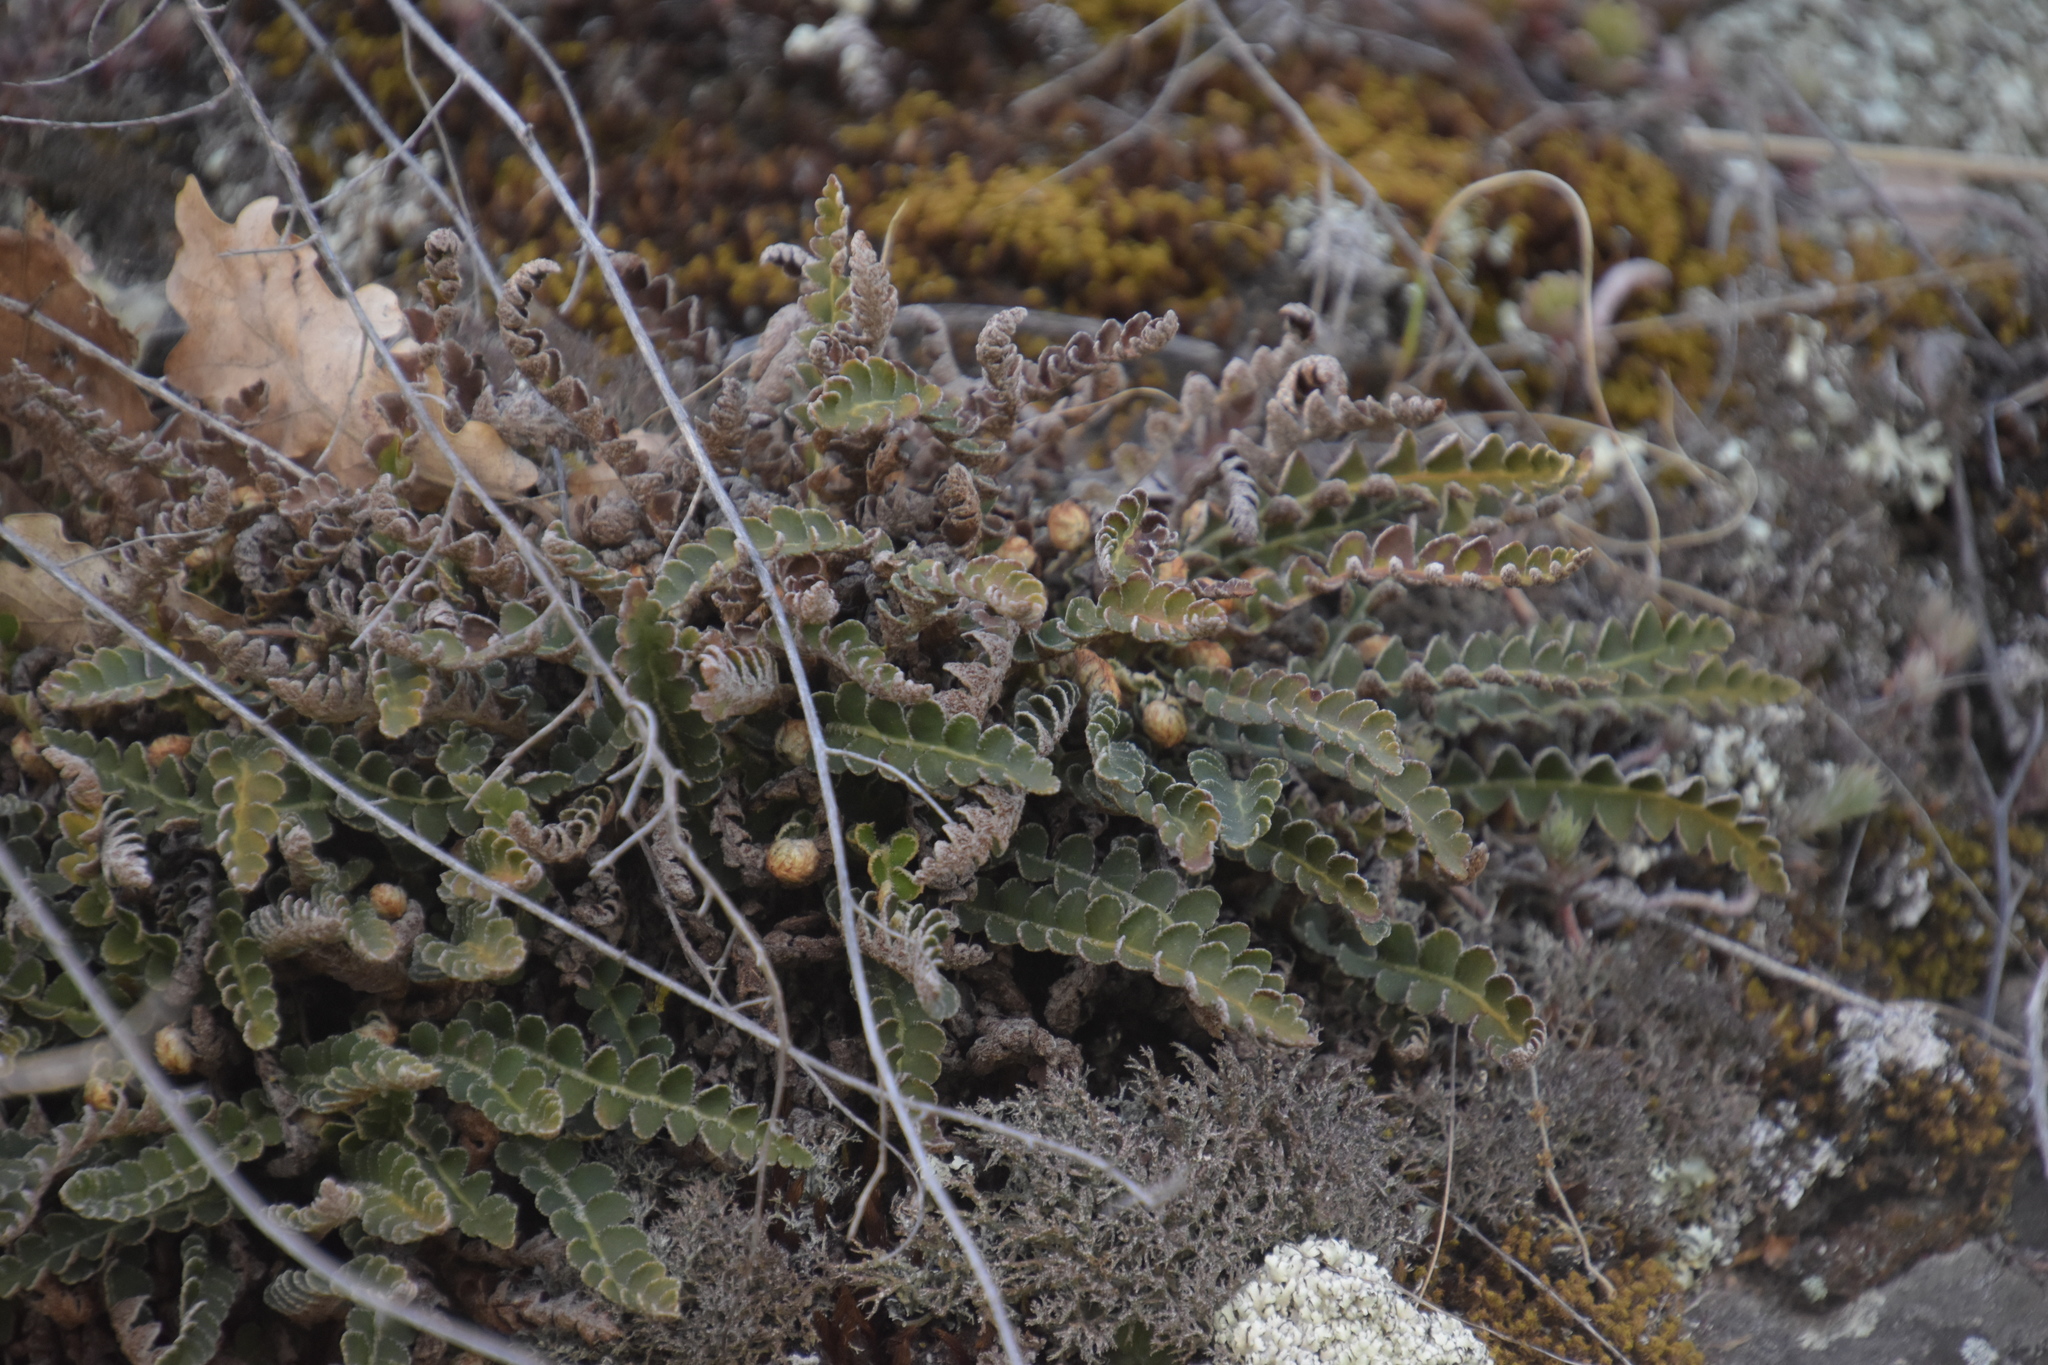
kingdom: Plantae
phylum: Tracheophyta
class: Polypodiopsida
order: Polypodiales
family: Aspleniaceae
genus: Asplenium
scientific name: Asplenium ceterach
